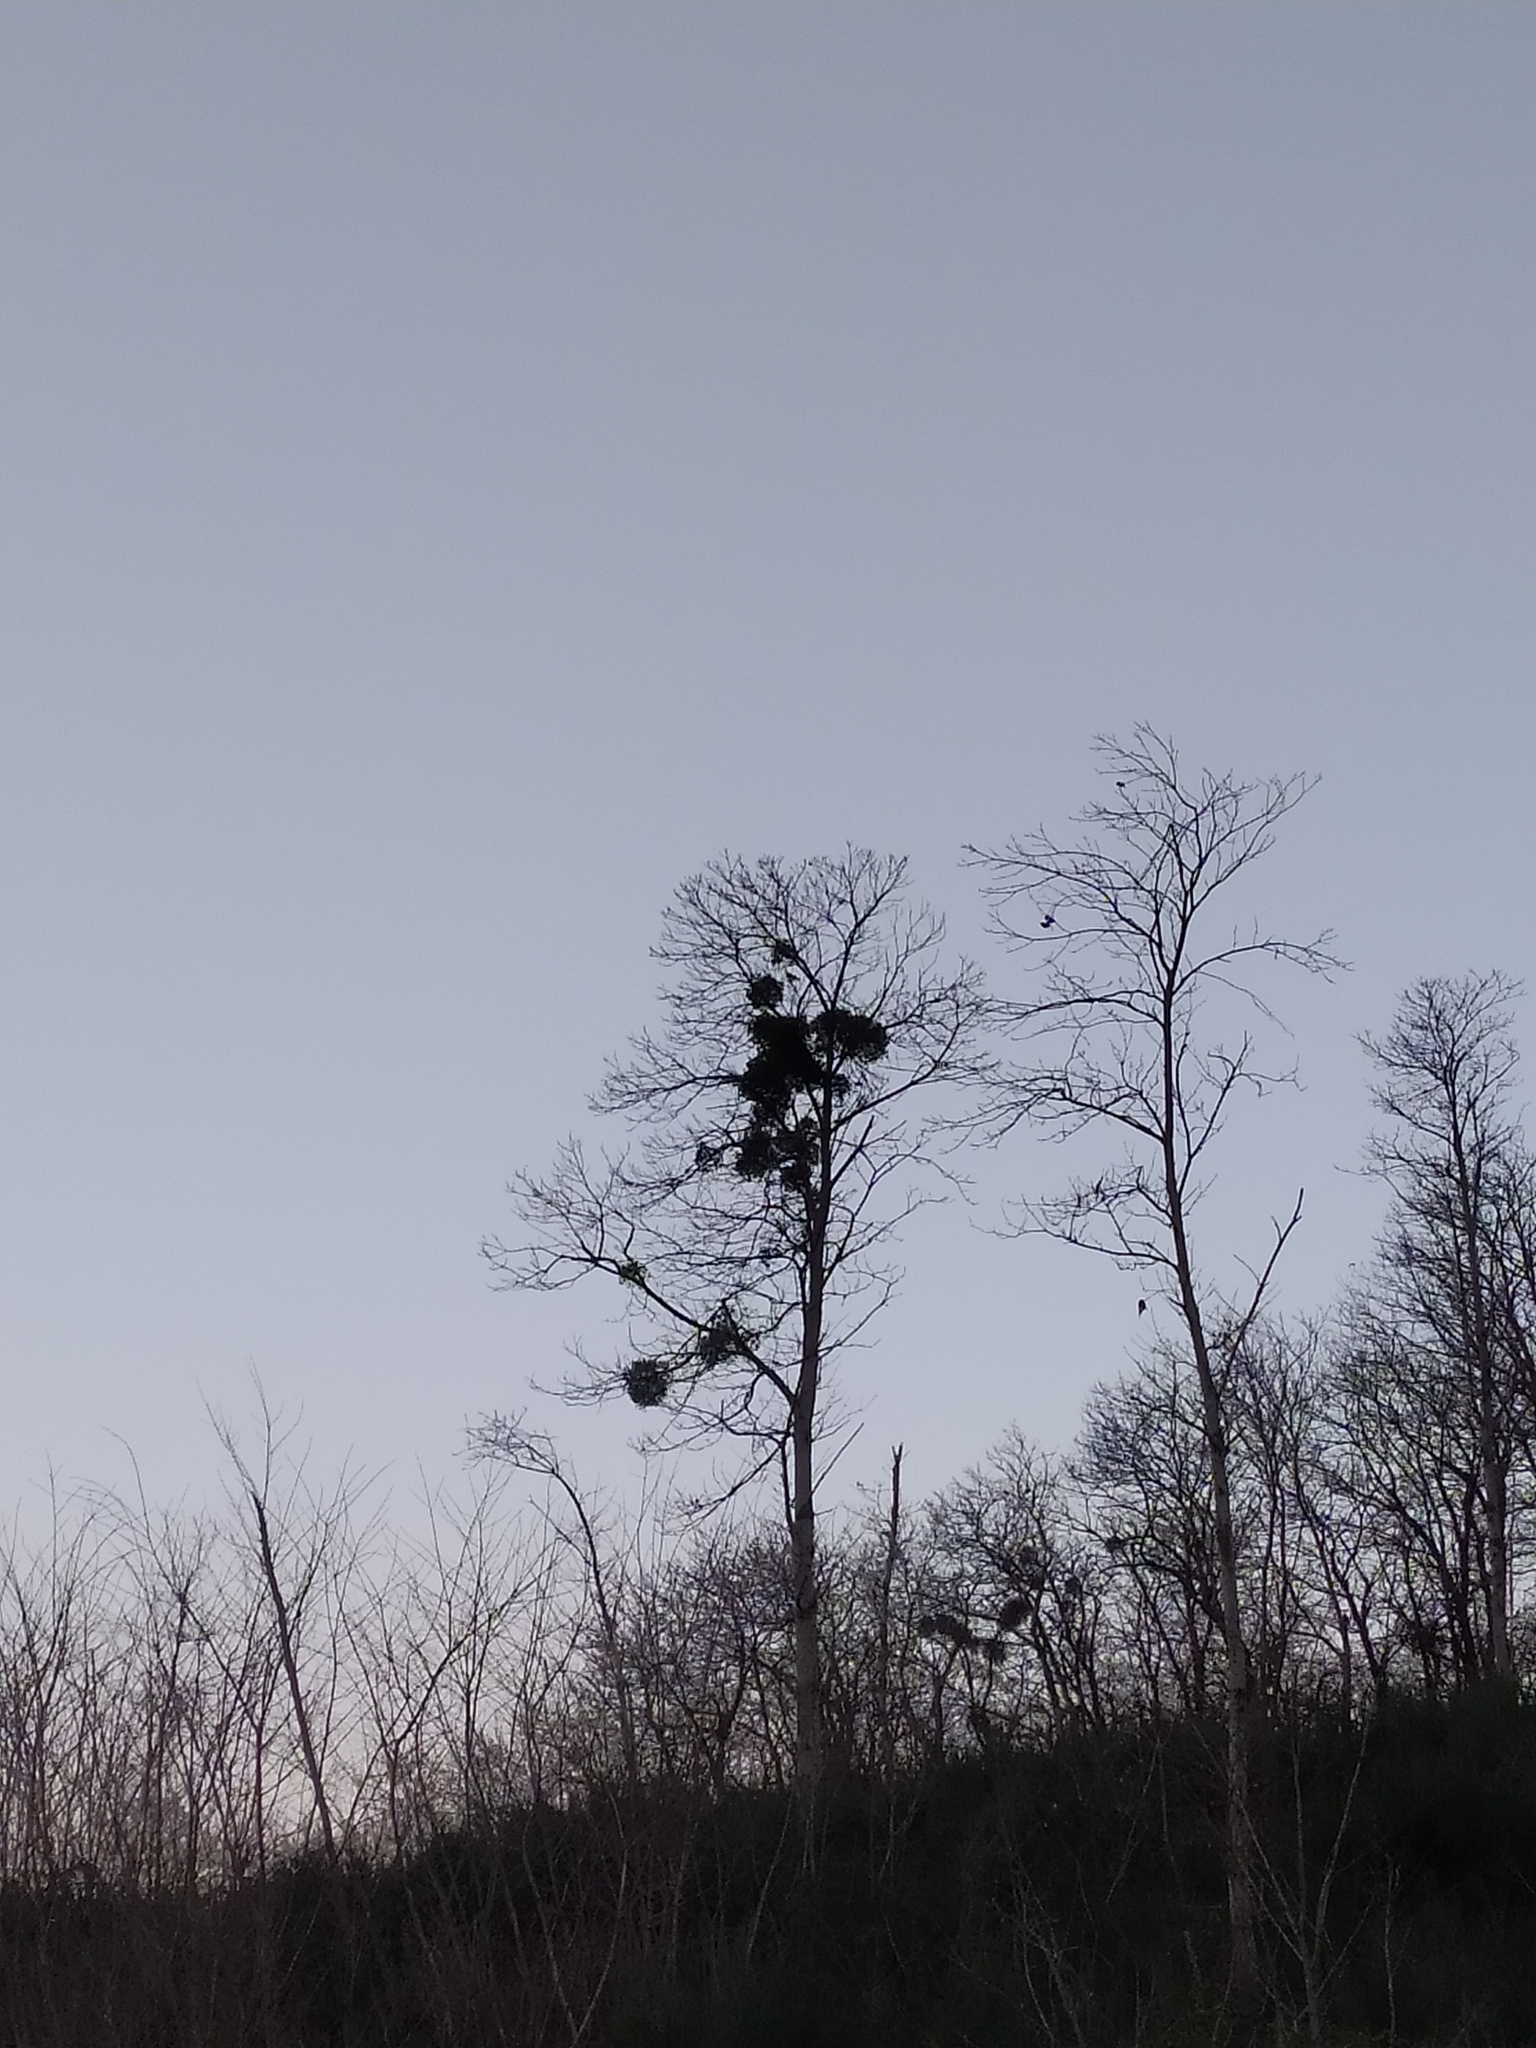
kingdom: Plantae
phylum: Tracheophyta
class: Magnoliopsida
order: Santalales
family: Viscaceae
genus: Viscum
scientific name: Viscum album
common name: Mistletoe
